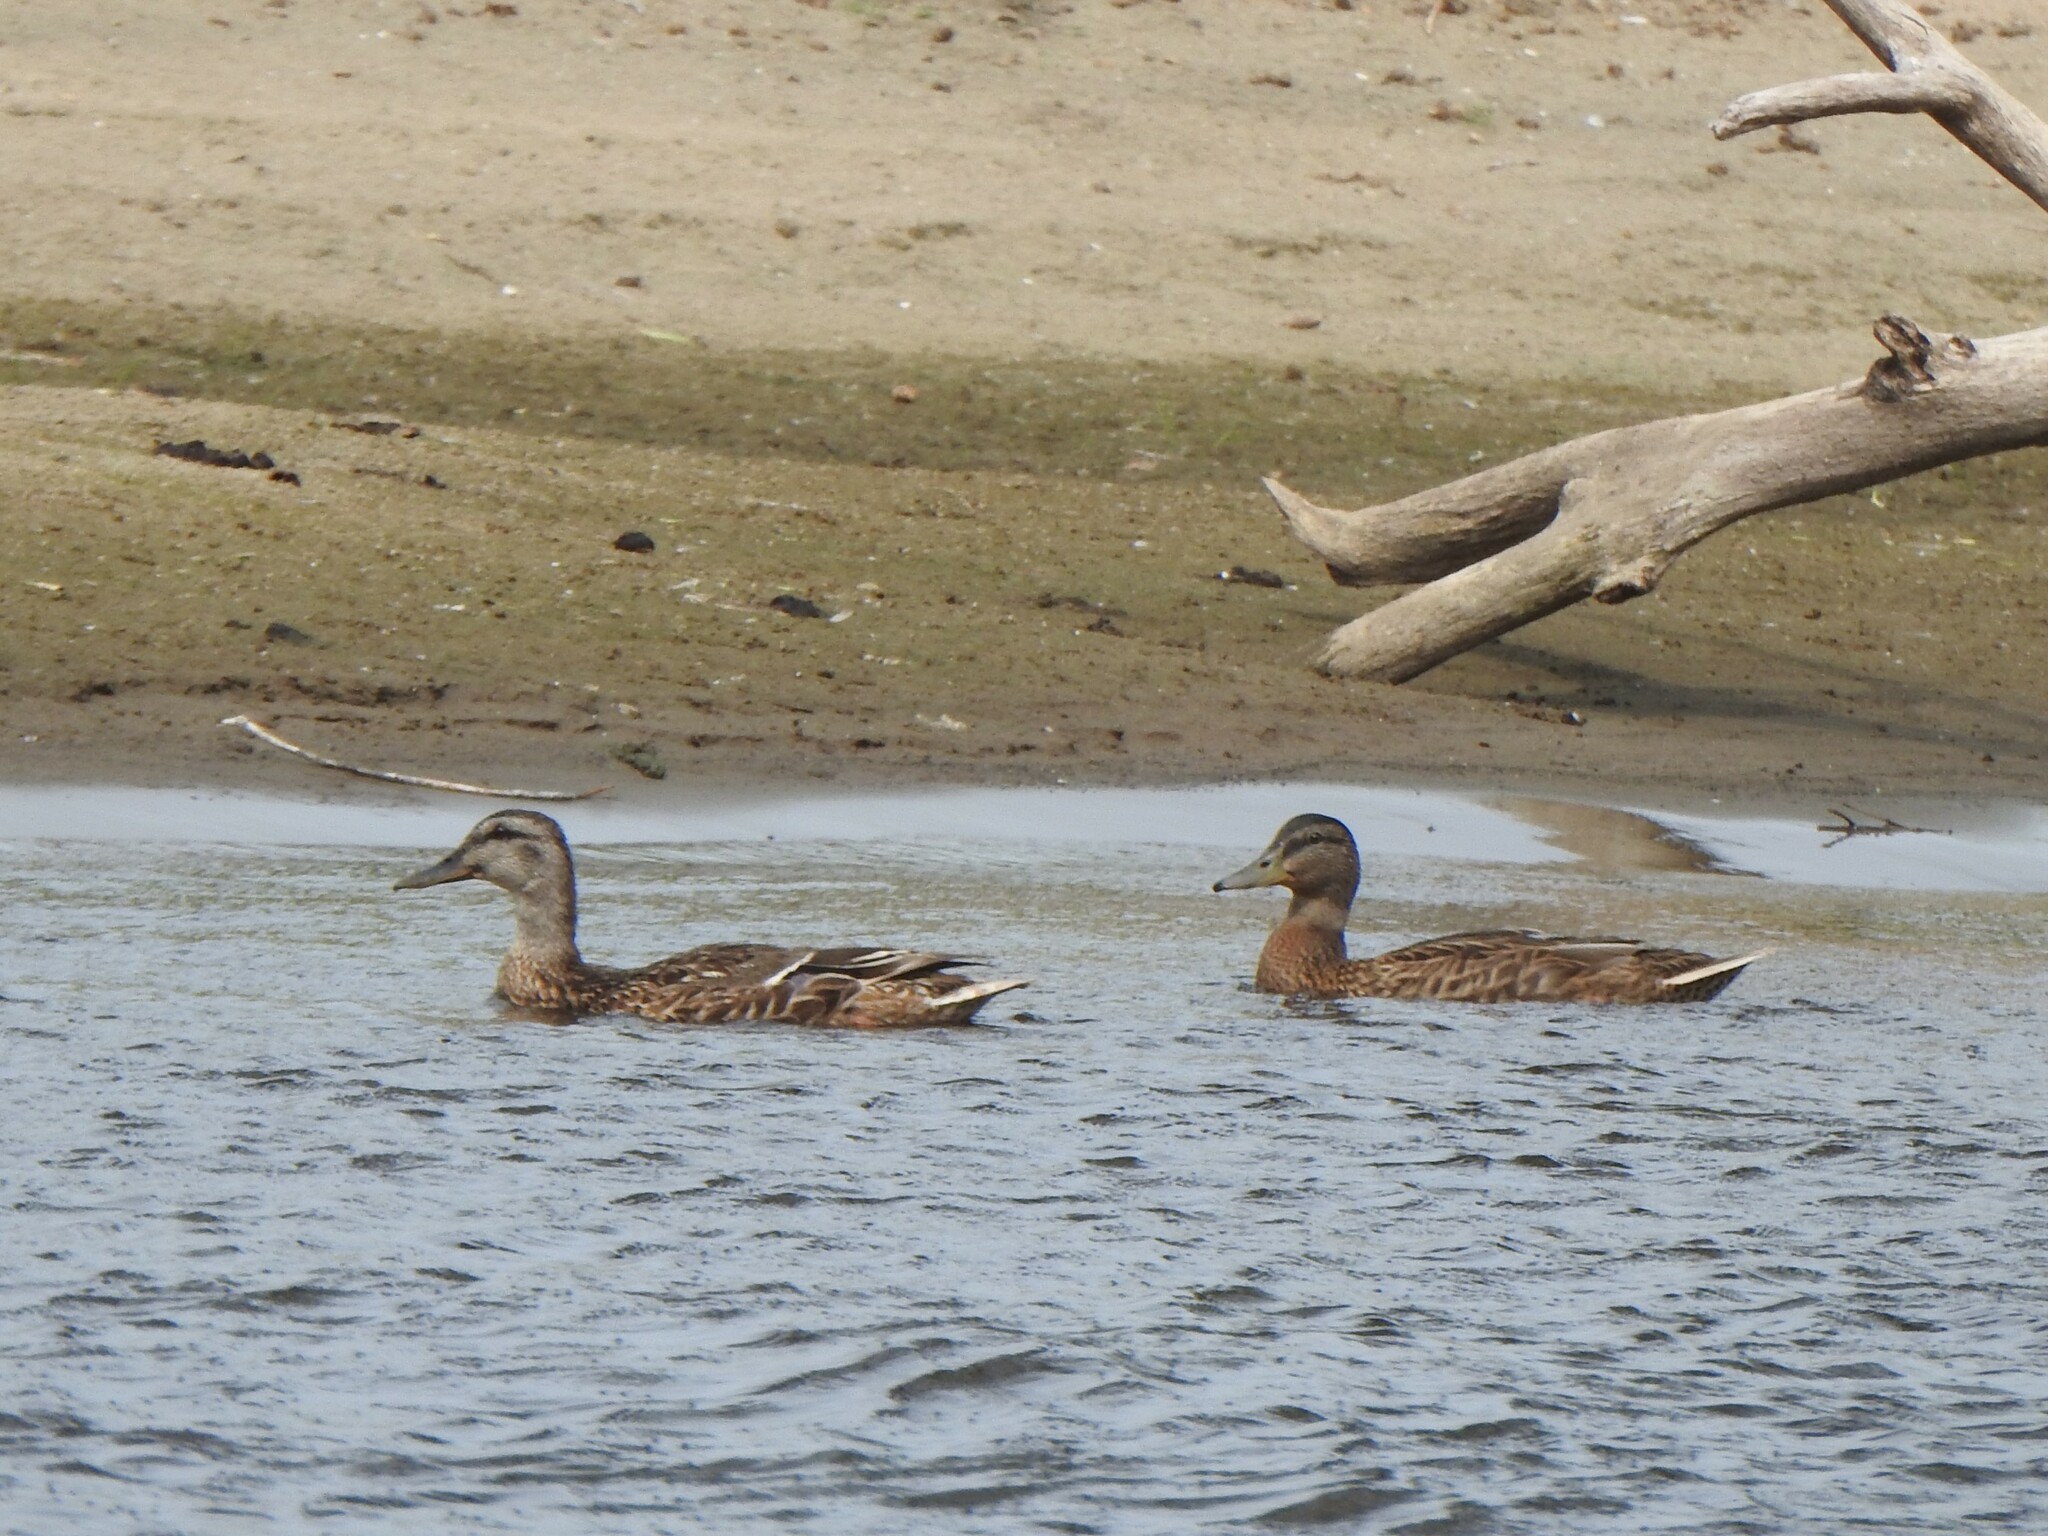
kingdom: Animalia
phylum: Chordata
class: Aves
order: Anseriformes
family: Anatidae
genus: Anas
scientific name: Anas platyrhynchos
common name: Mallard
